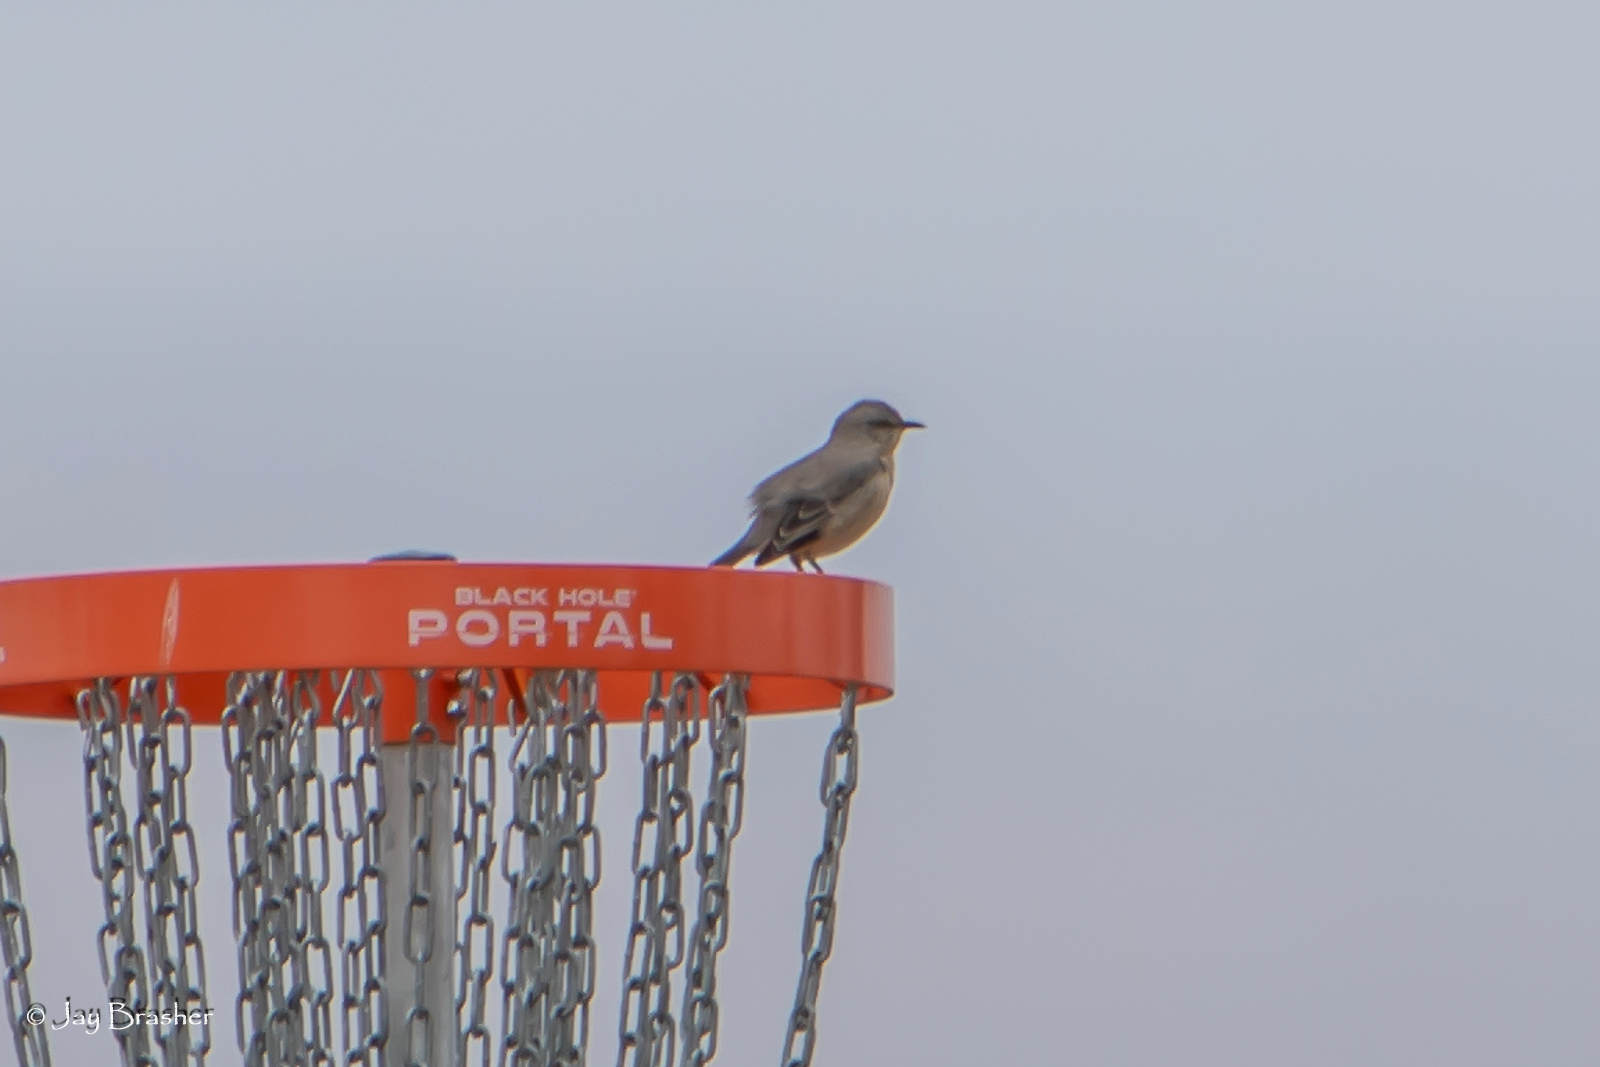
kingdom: Animalia
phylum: Chordata
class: Aves
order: Passeriformes
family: Mimidae
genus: Mimus
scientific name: Mimus polyglottos
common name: Northern mockingbird
